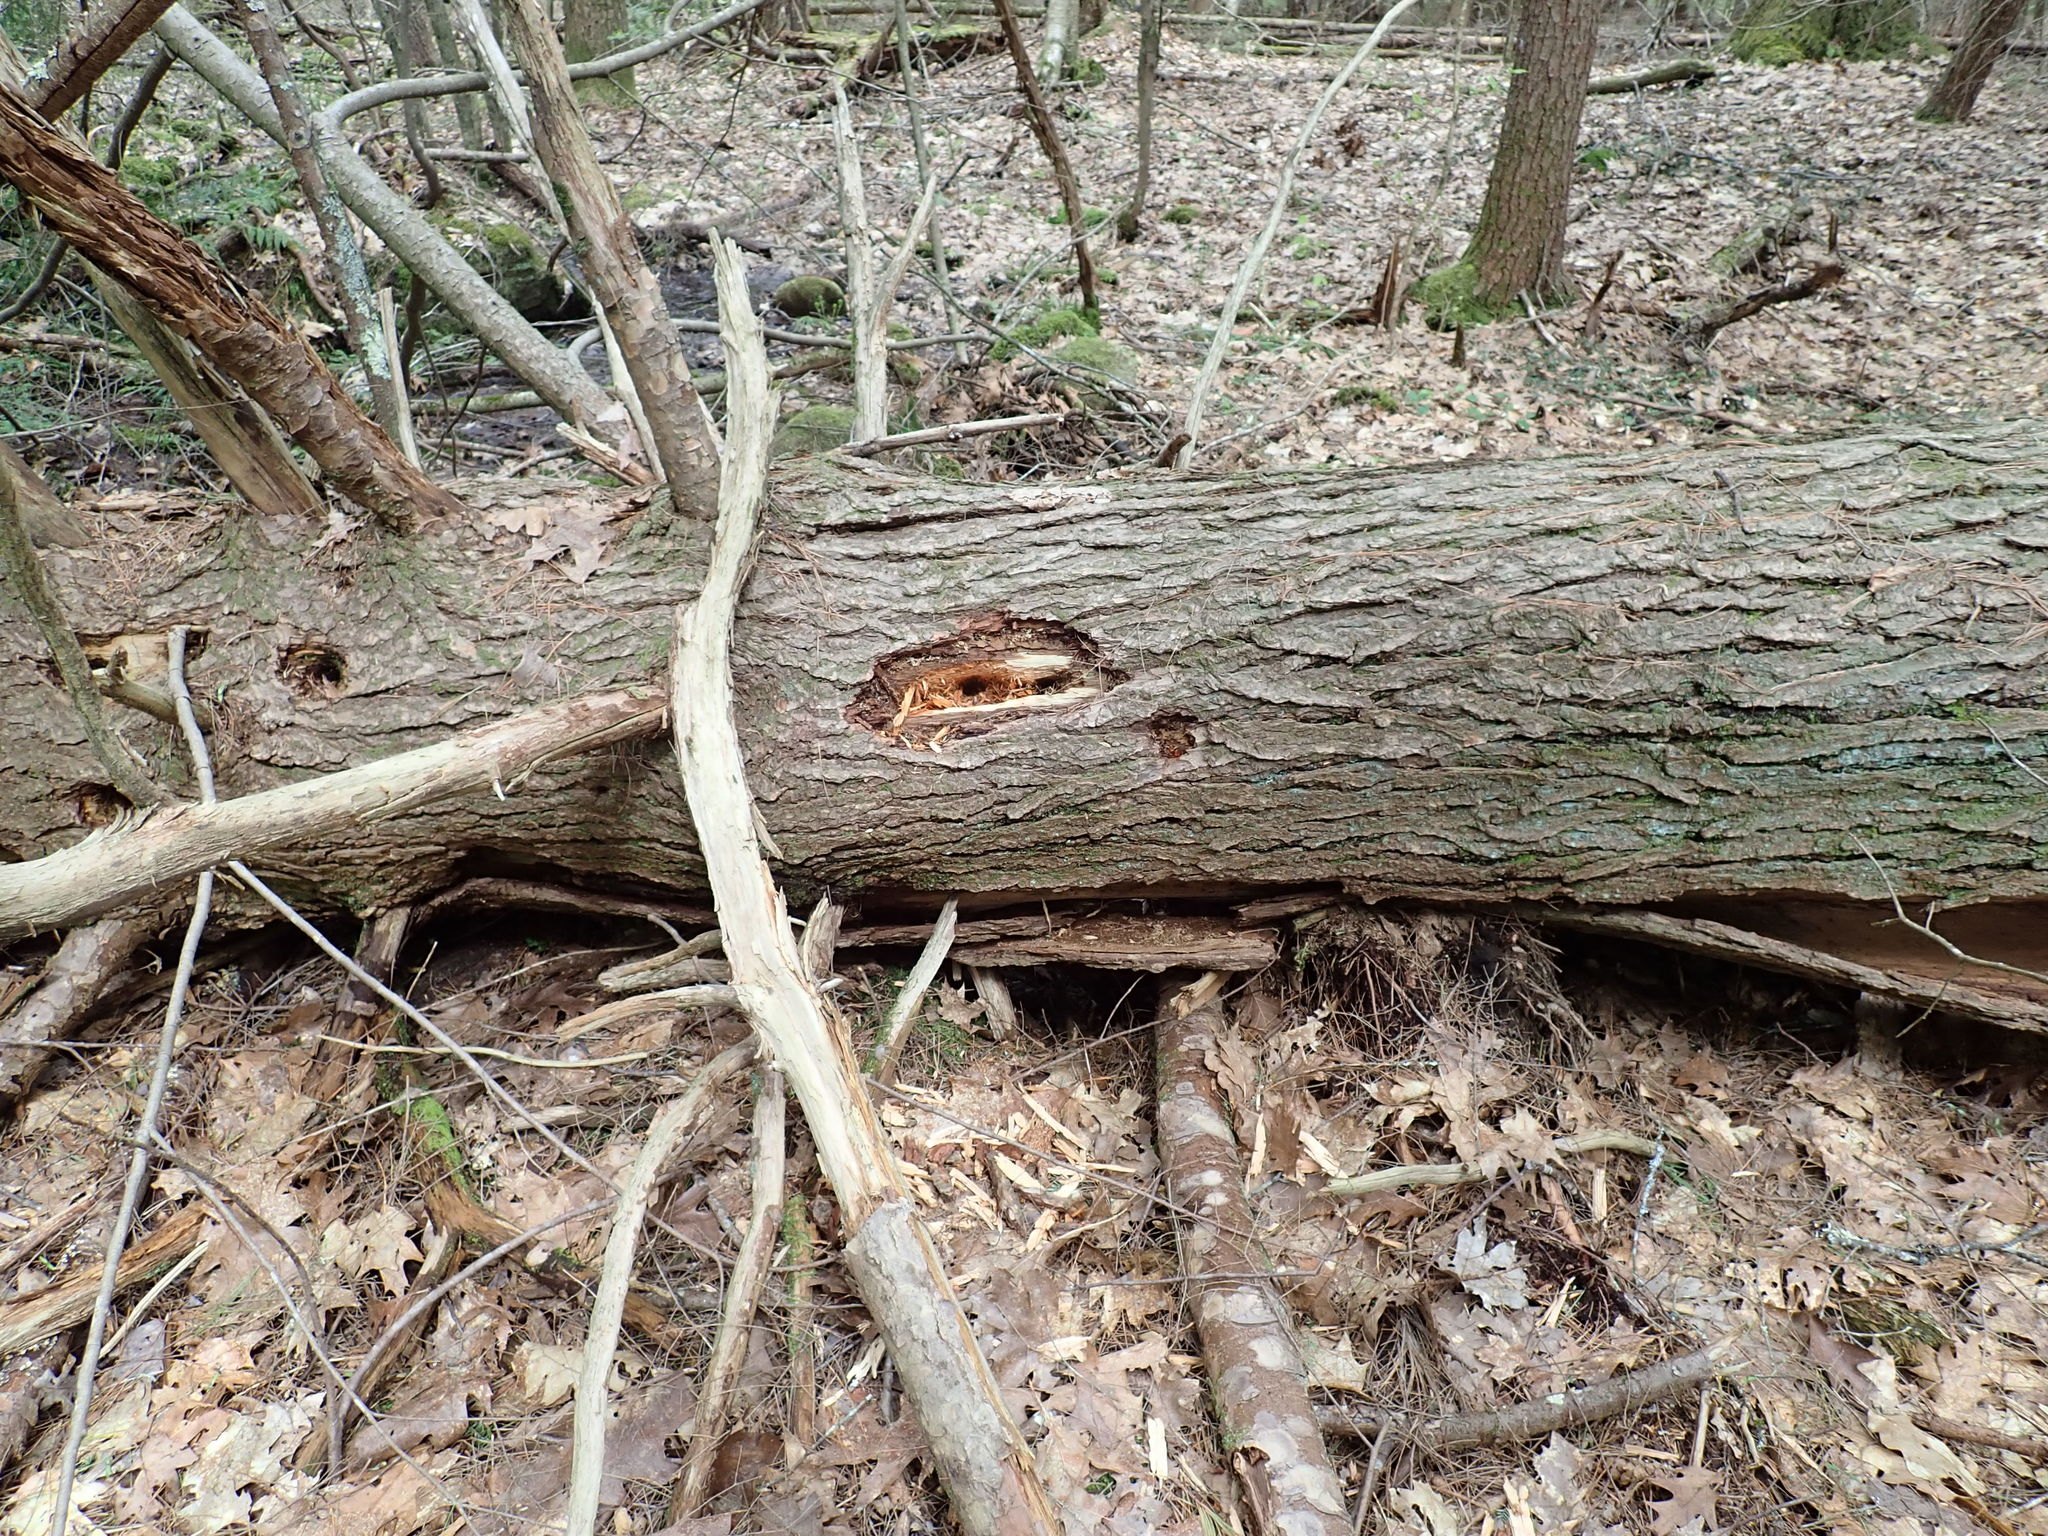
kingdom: Animalia
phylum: Chordata
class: Aves
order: Piciformes
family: Picidae
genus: Dryocopus
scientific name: Dryocopus pileatus
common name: Pileated woodpecker
